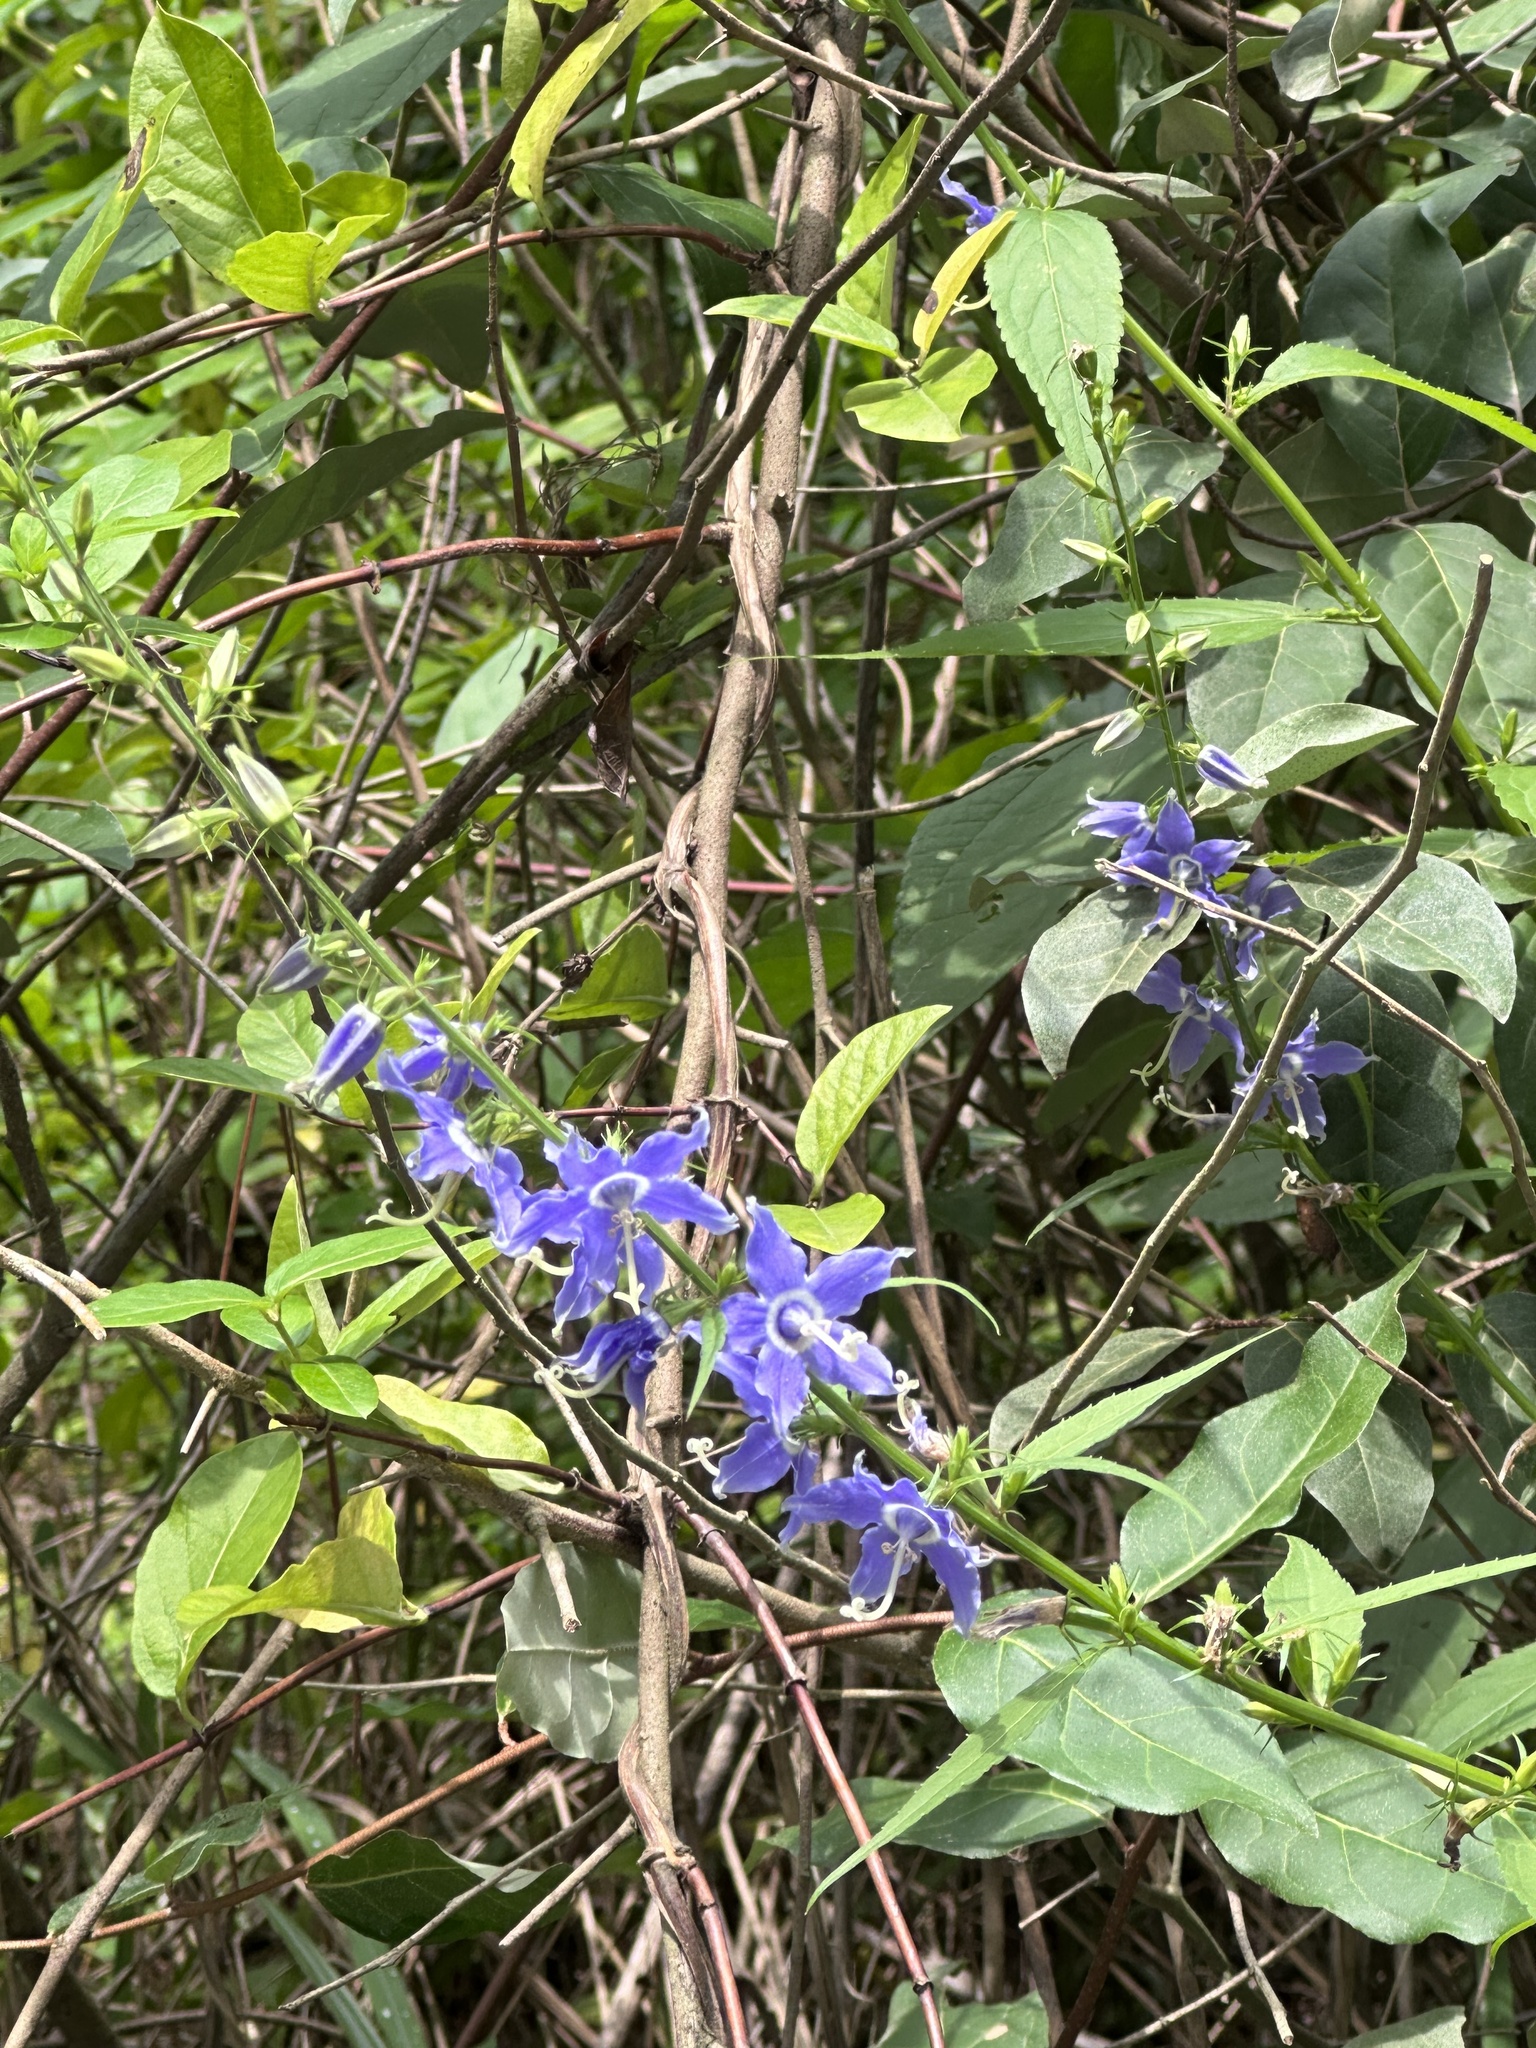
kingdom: Plantae
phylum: Tracheophyta
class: Magnoliopsida
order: Asterales
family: Campanulaceae
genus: Campanulastrum
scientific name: Campanulastrum americanum
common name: American bellflower
